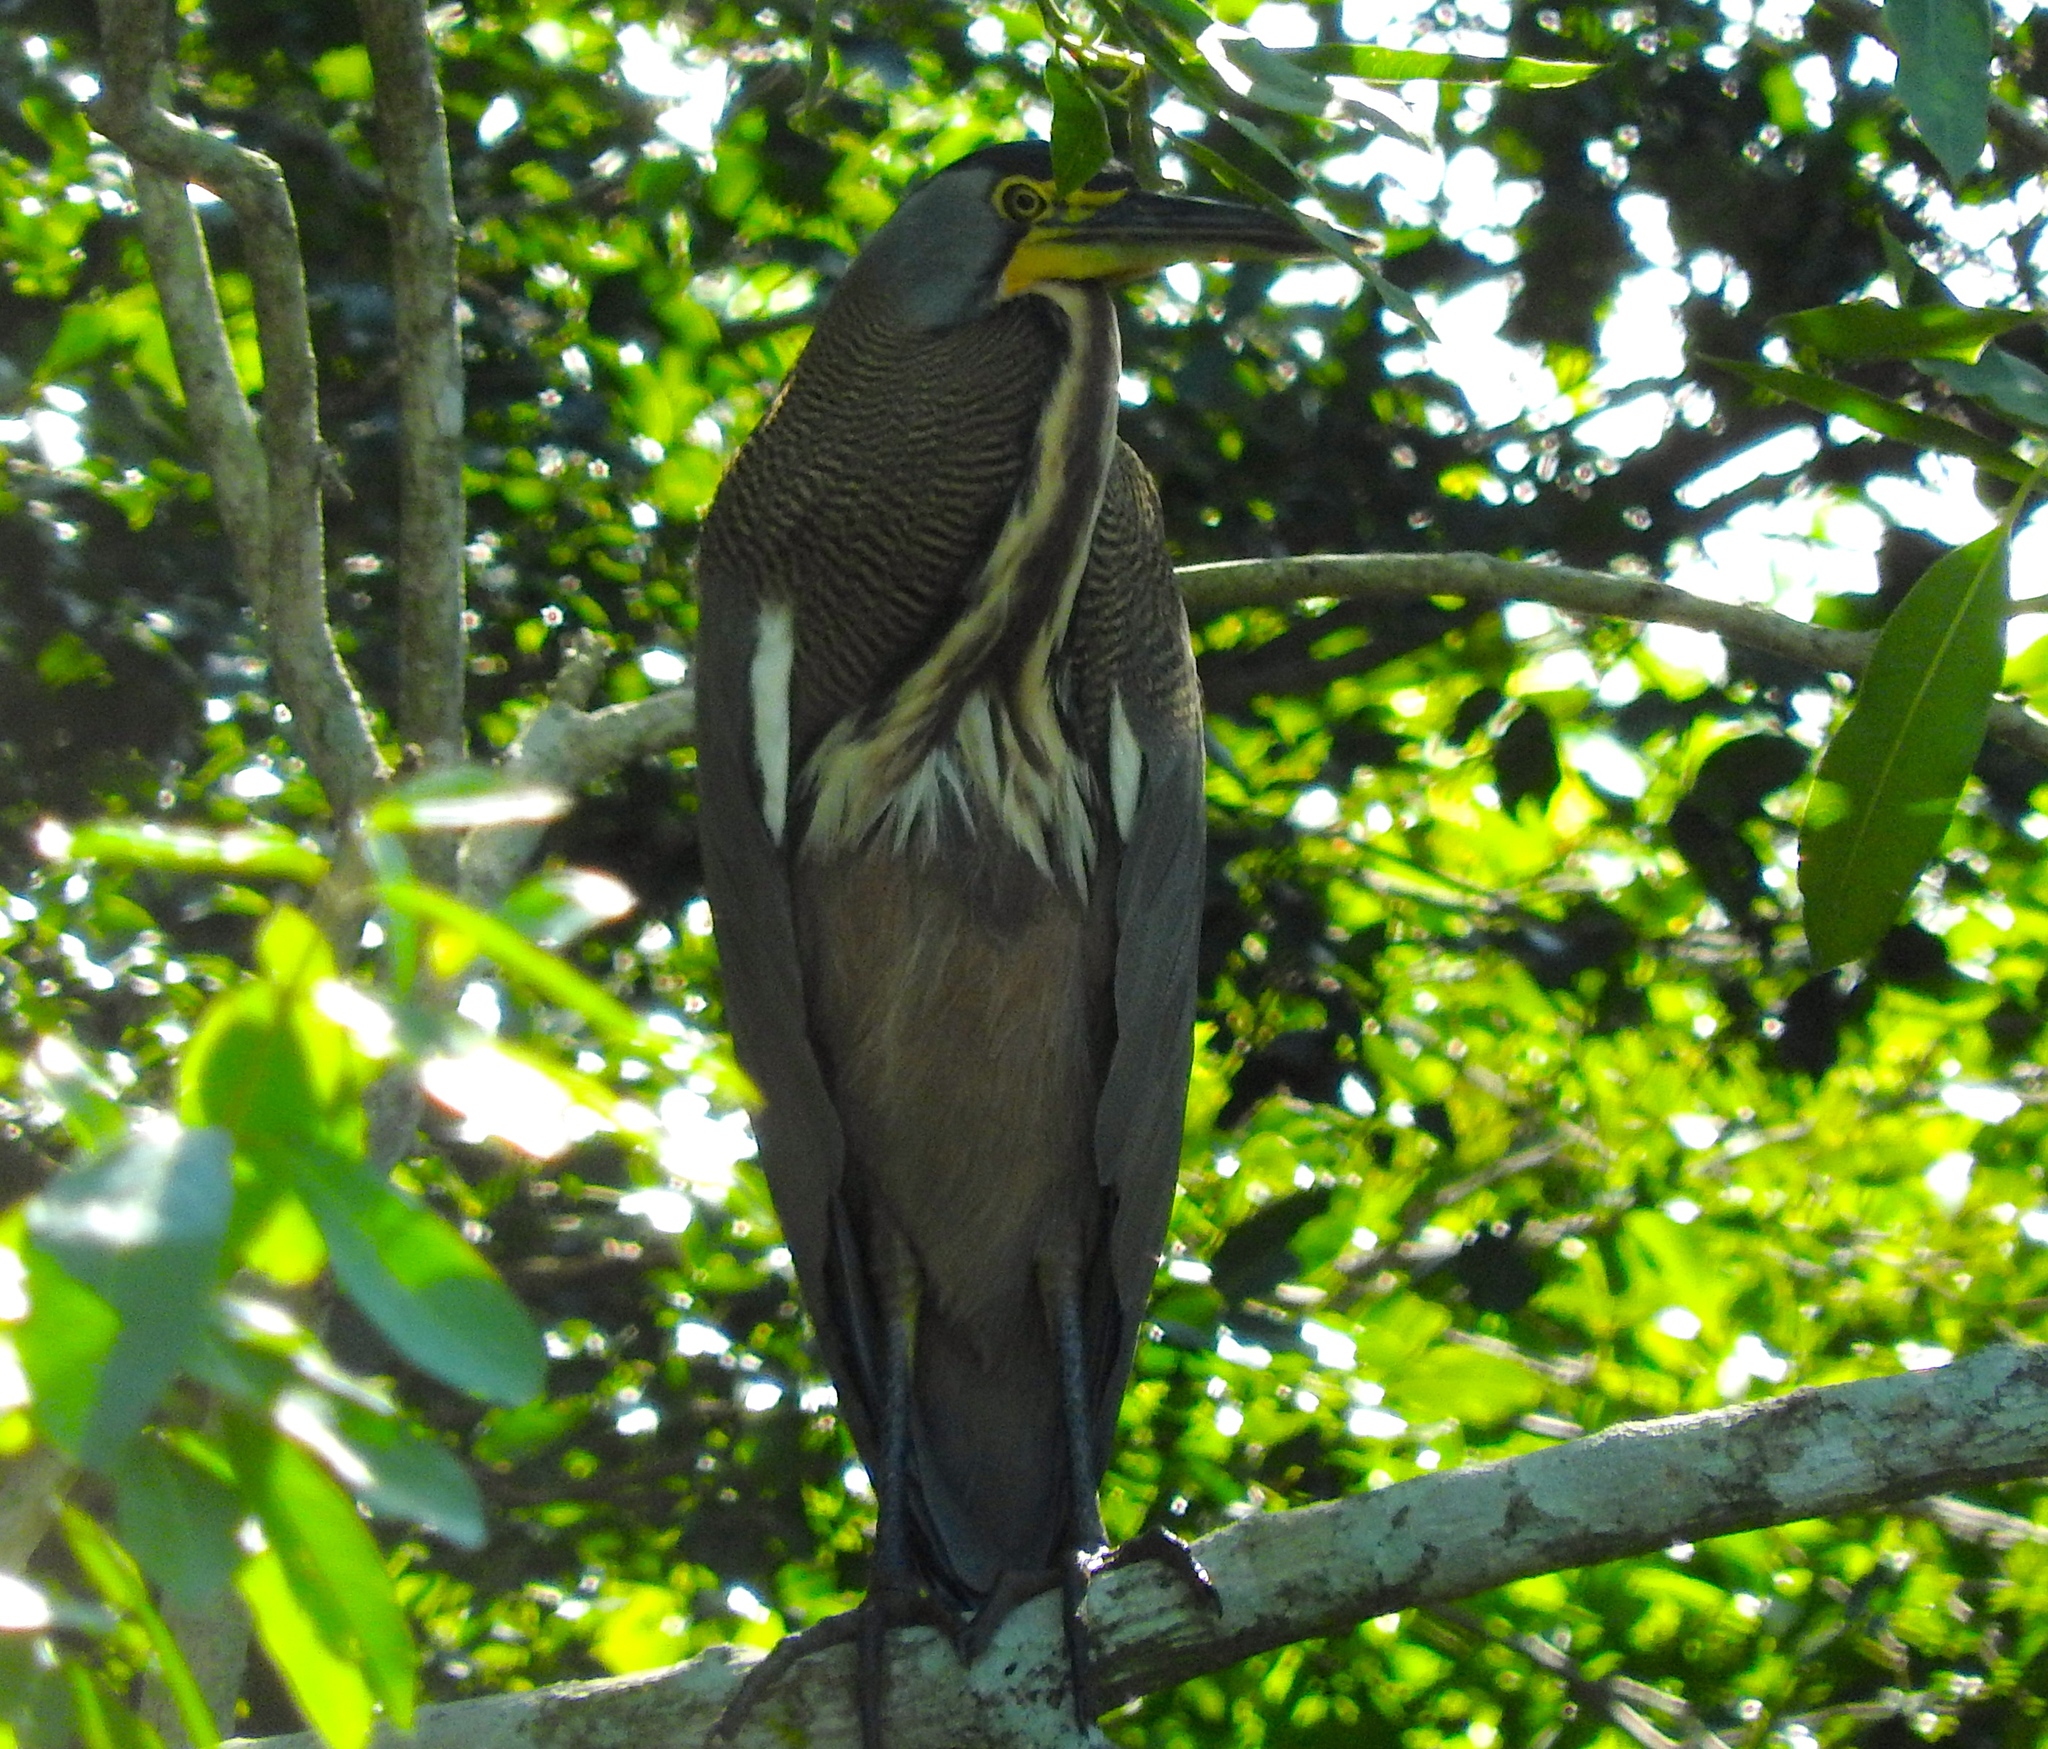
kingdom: Animalia
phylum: Chordata
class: Aves
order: Pelecaniformes
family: Ardeidae
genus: Tigrisoma
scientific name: Tigrisoma mexicanum
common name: Bare-throated tiger-heron
